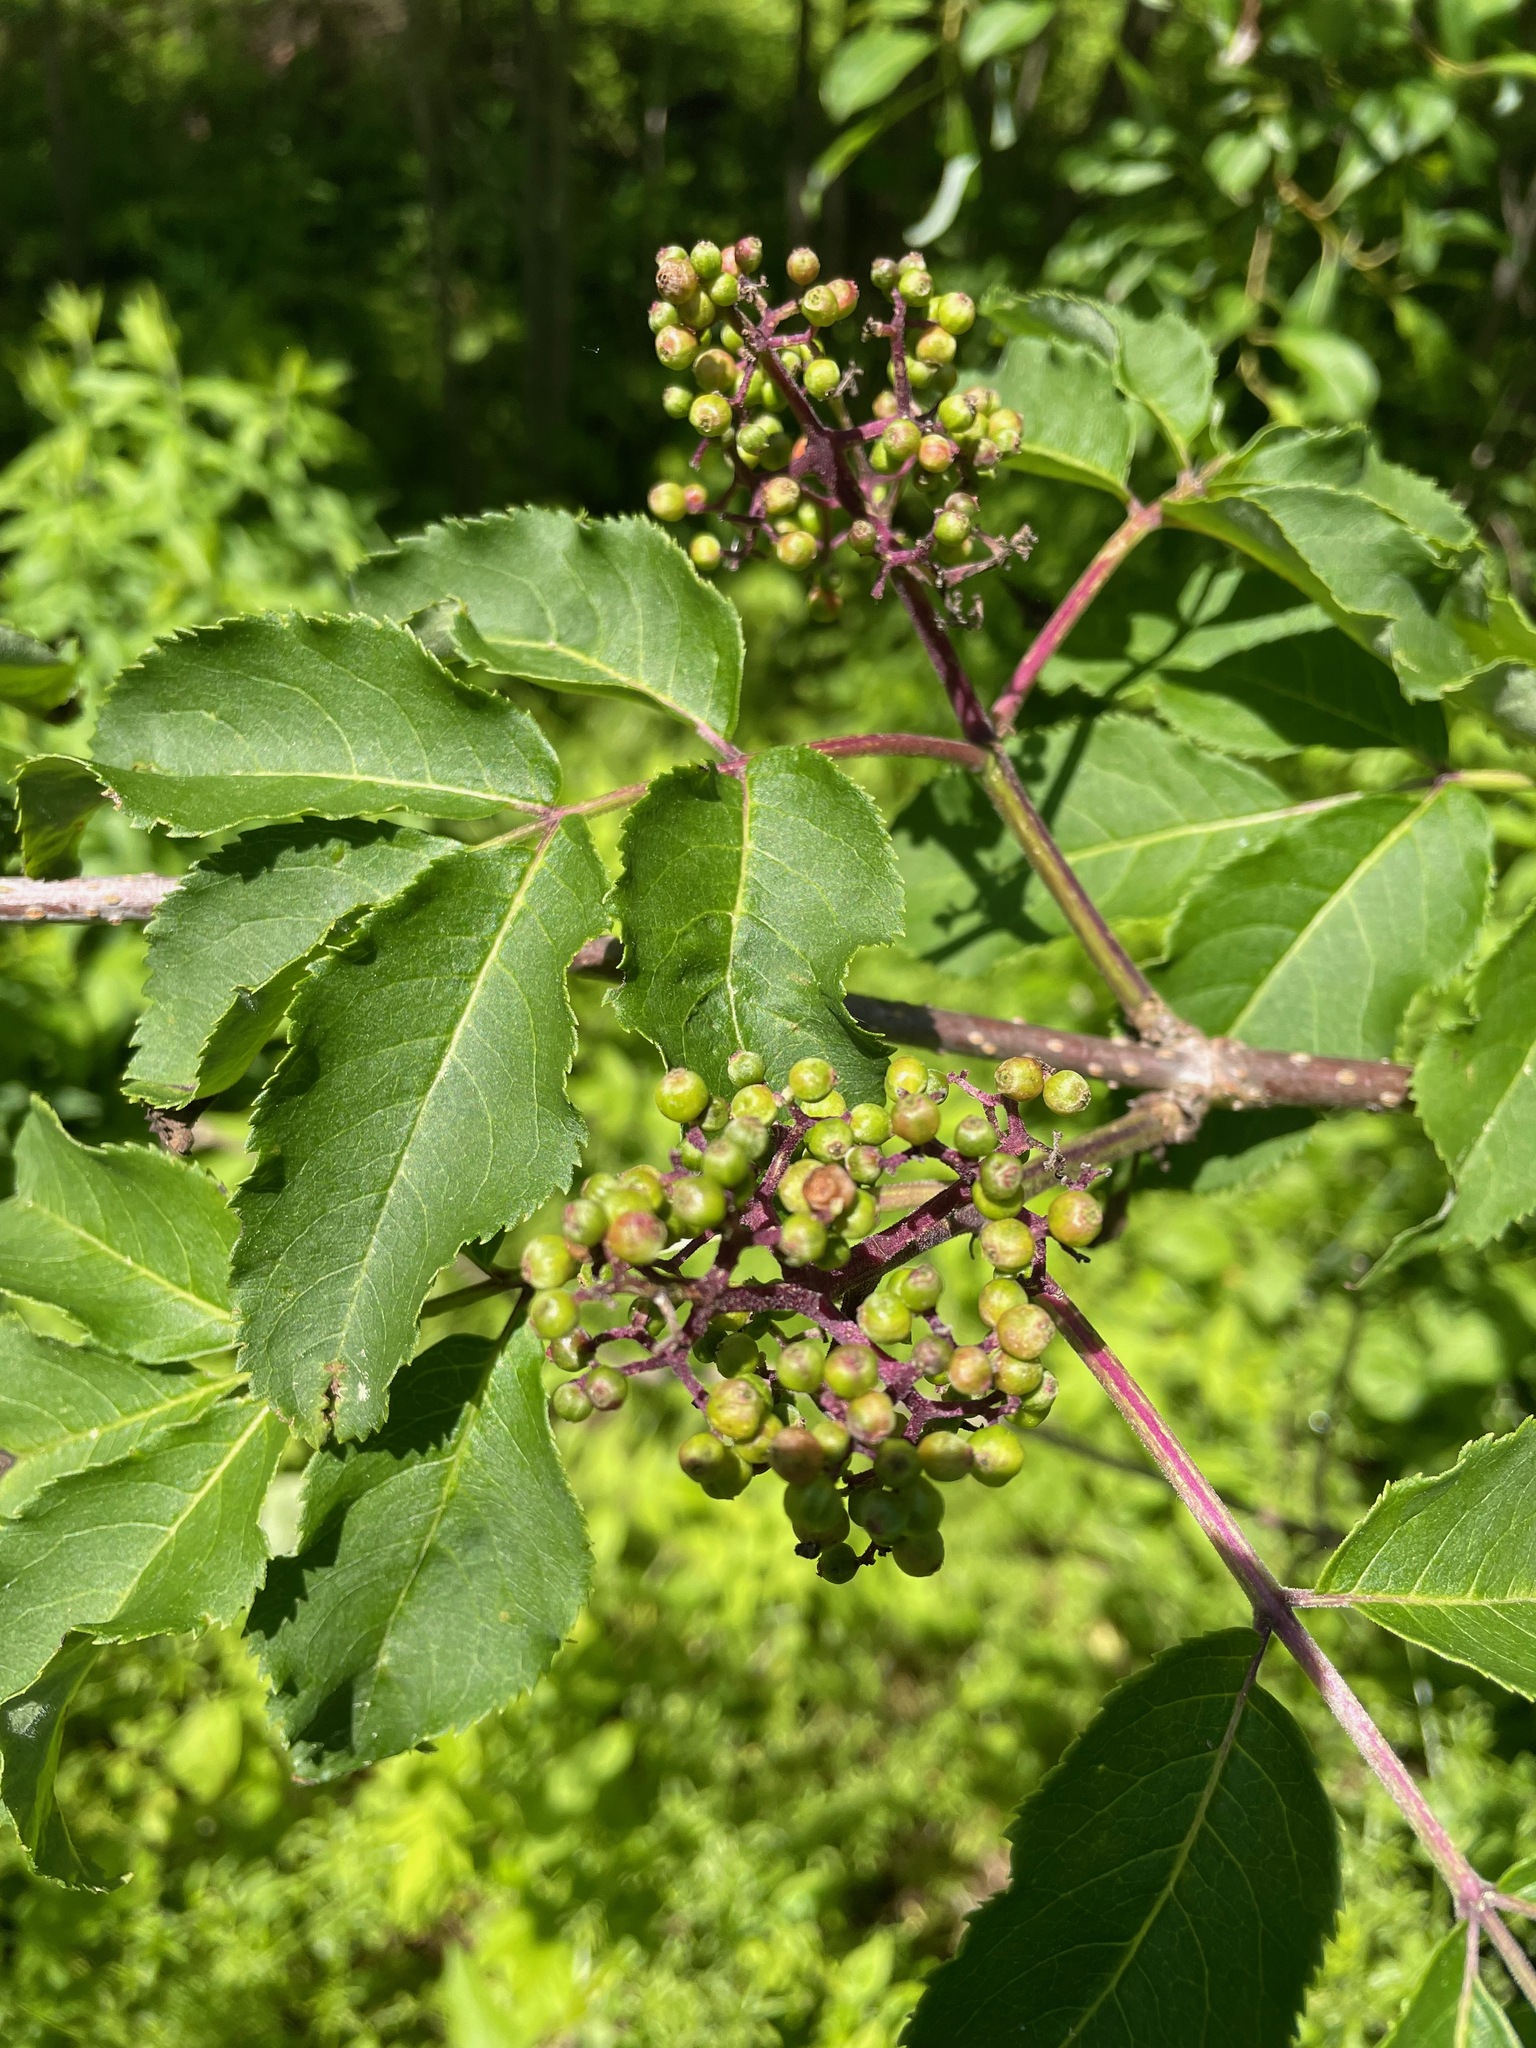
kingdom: Plantae
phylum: Tracheophyta
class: Magnoliopsida
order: Dipsacales
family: Viburnaceae
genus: Sambucus
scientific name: Sambucus racemosa
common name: Red-berried elder
